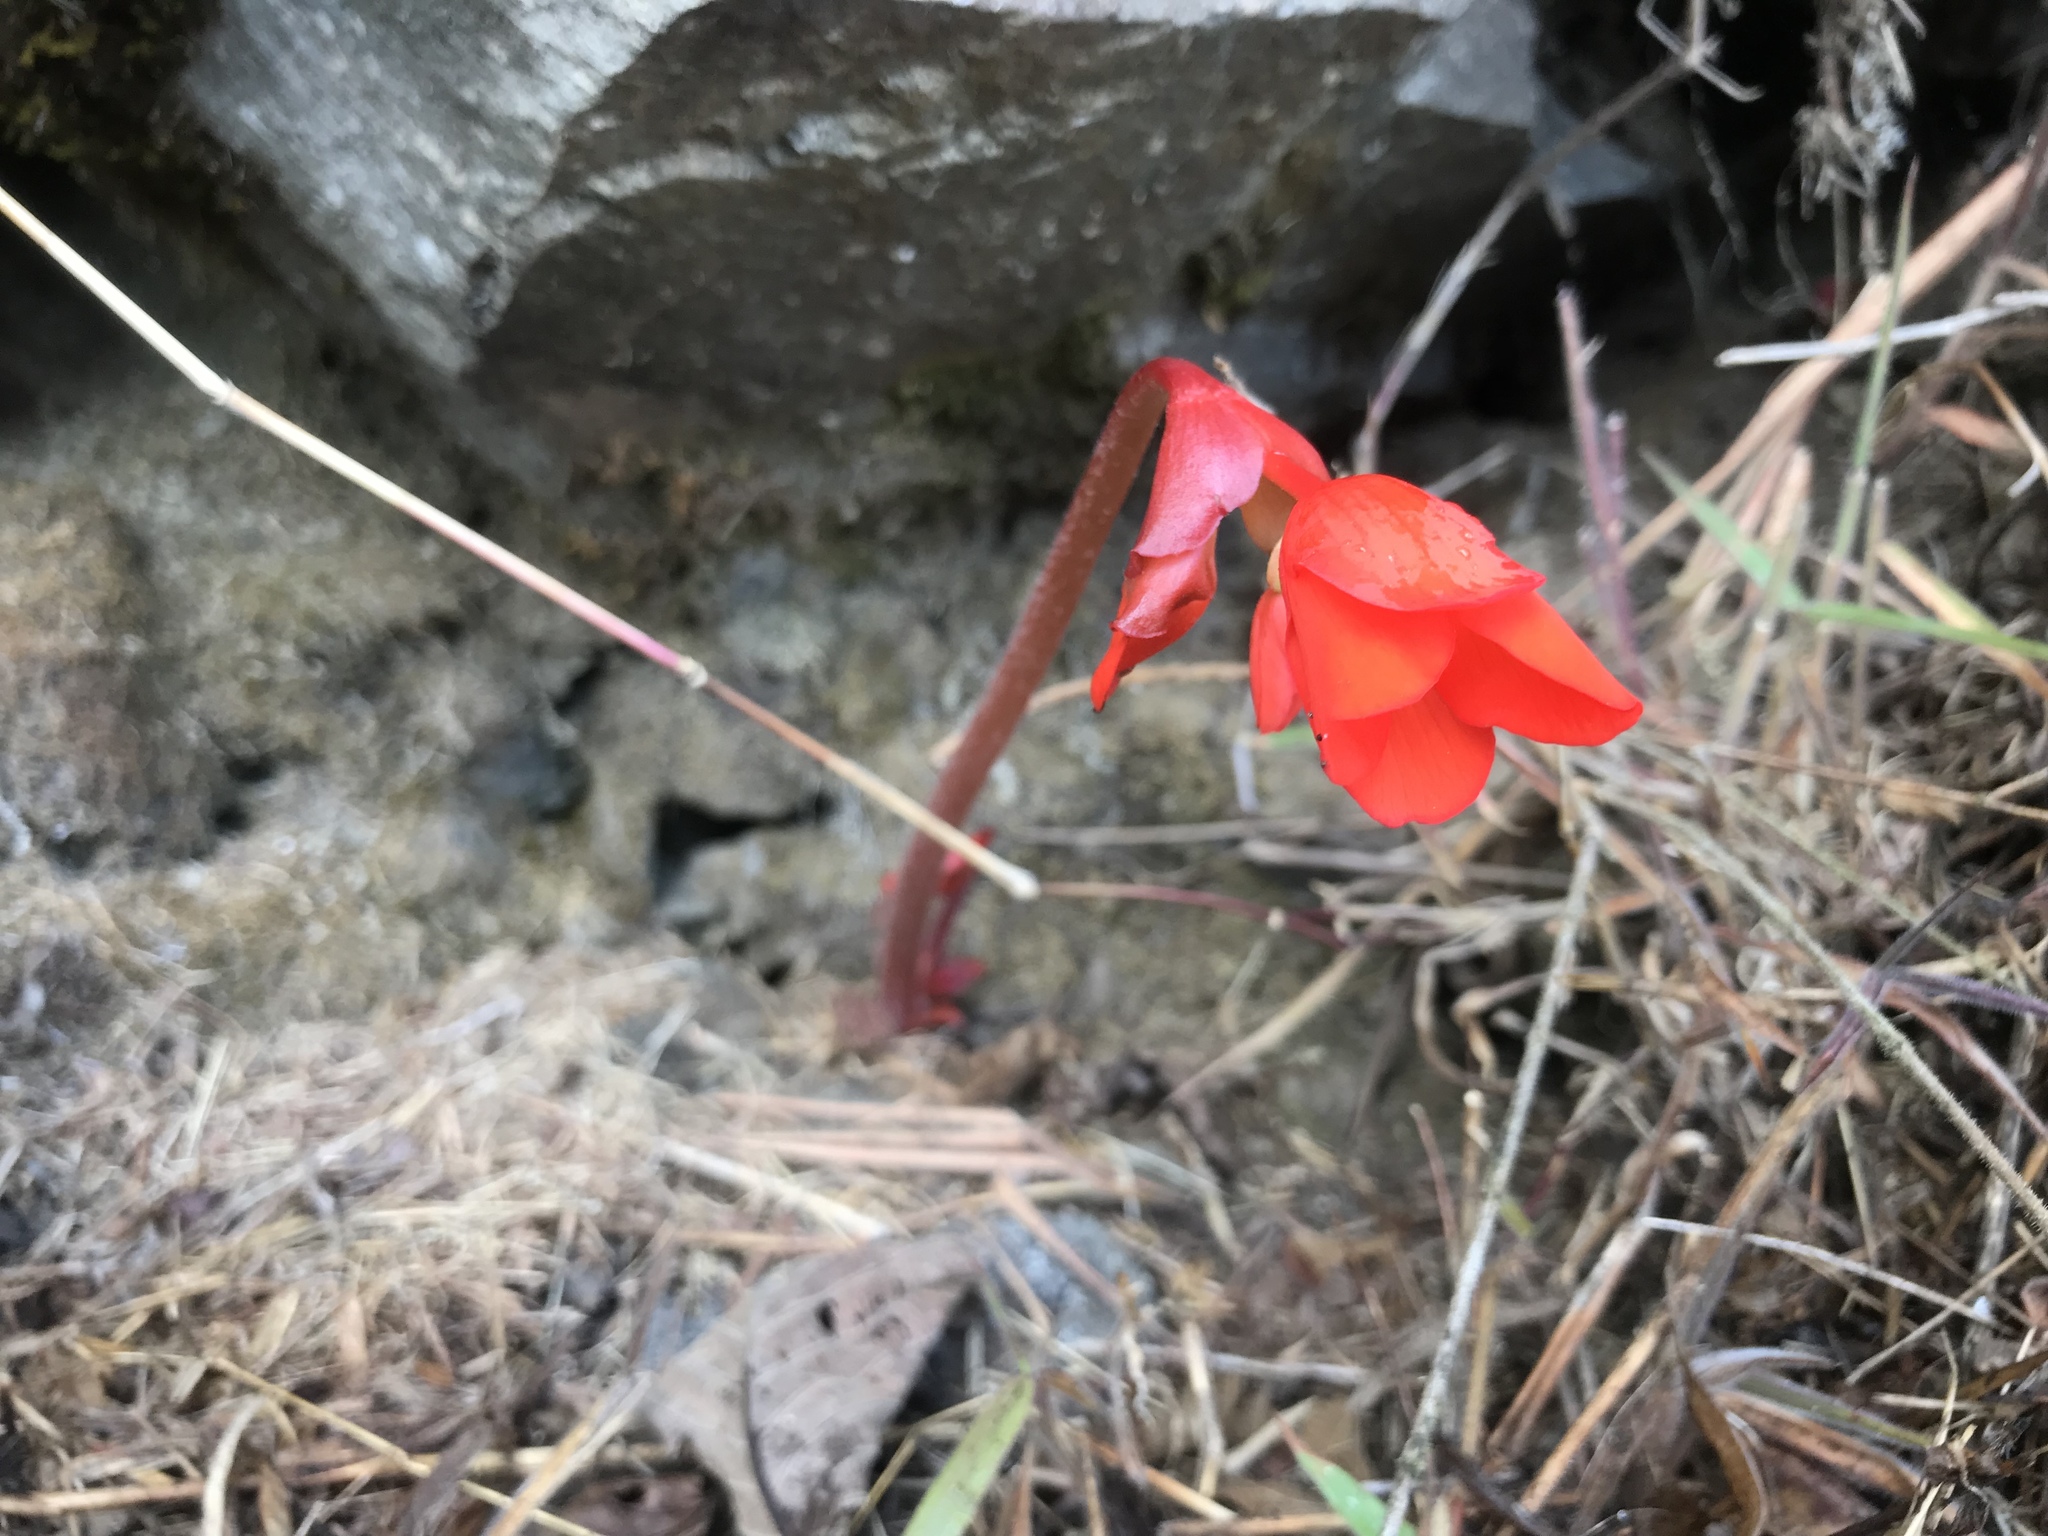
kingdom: Plantae
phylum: Tracheophyta
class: Magnoliopsida
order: Cucurbitales
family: Begoniaceae
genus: Begonia
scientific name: Begonia veitchii
